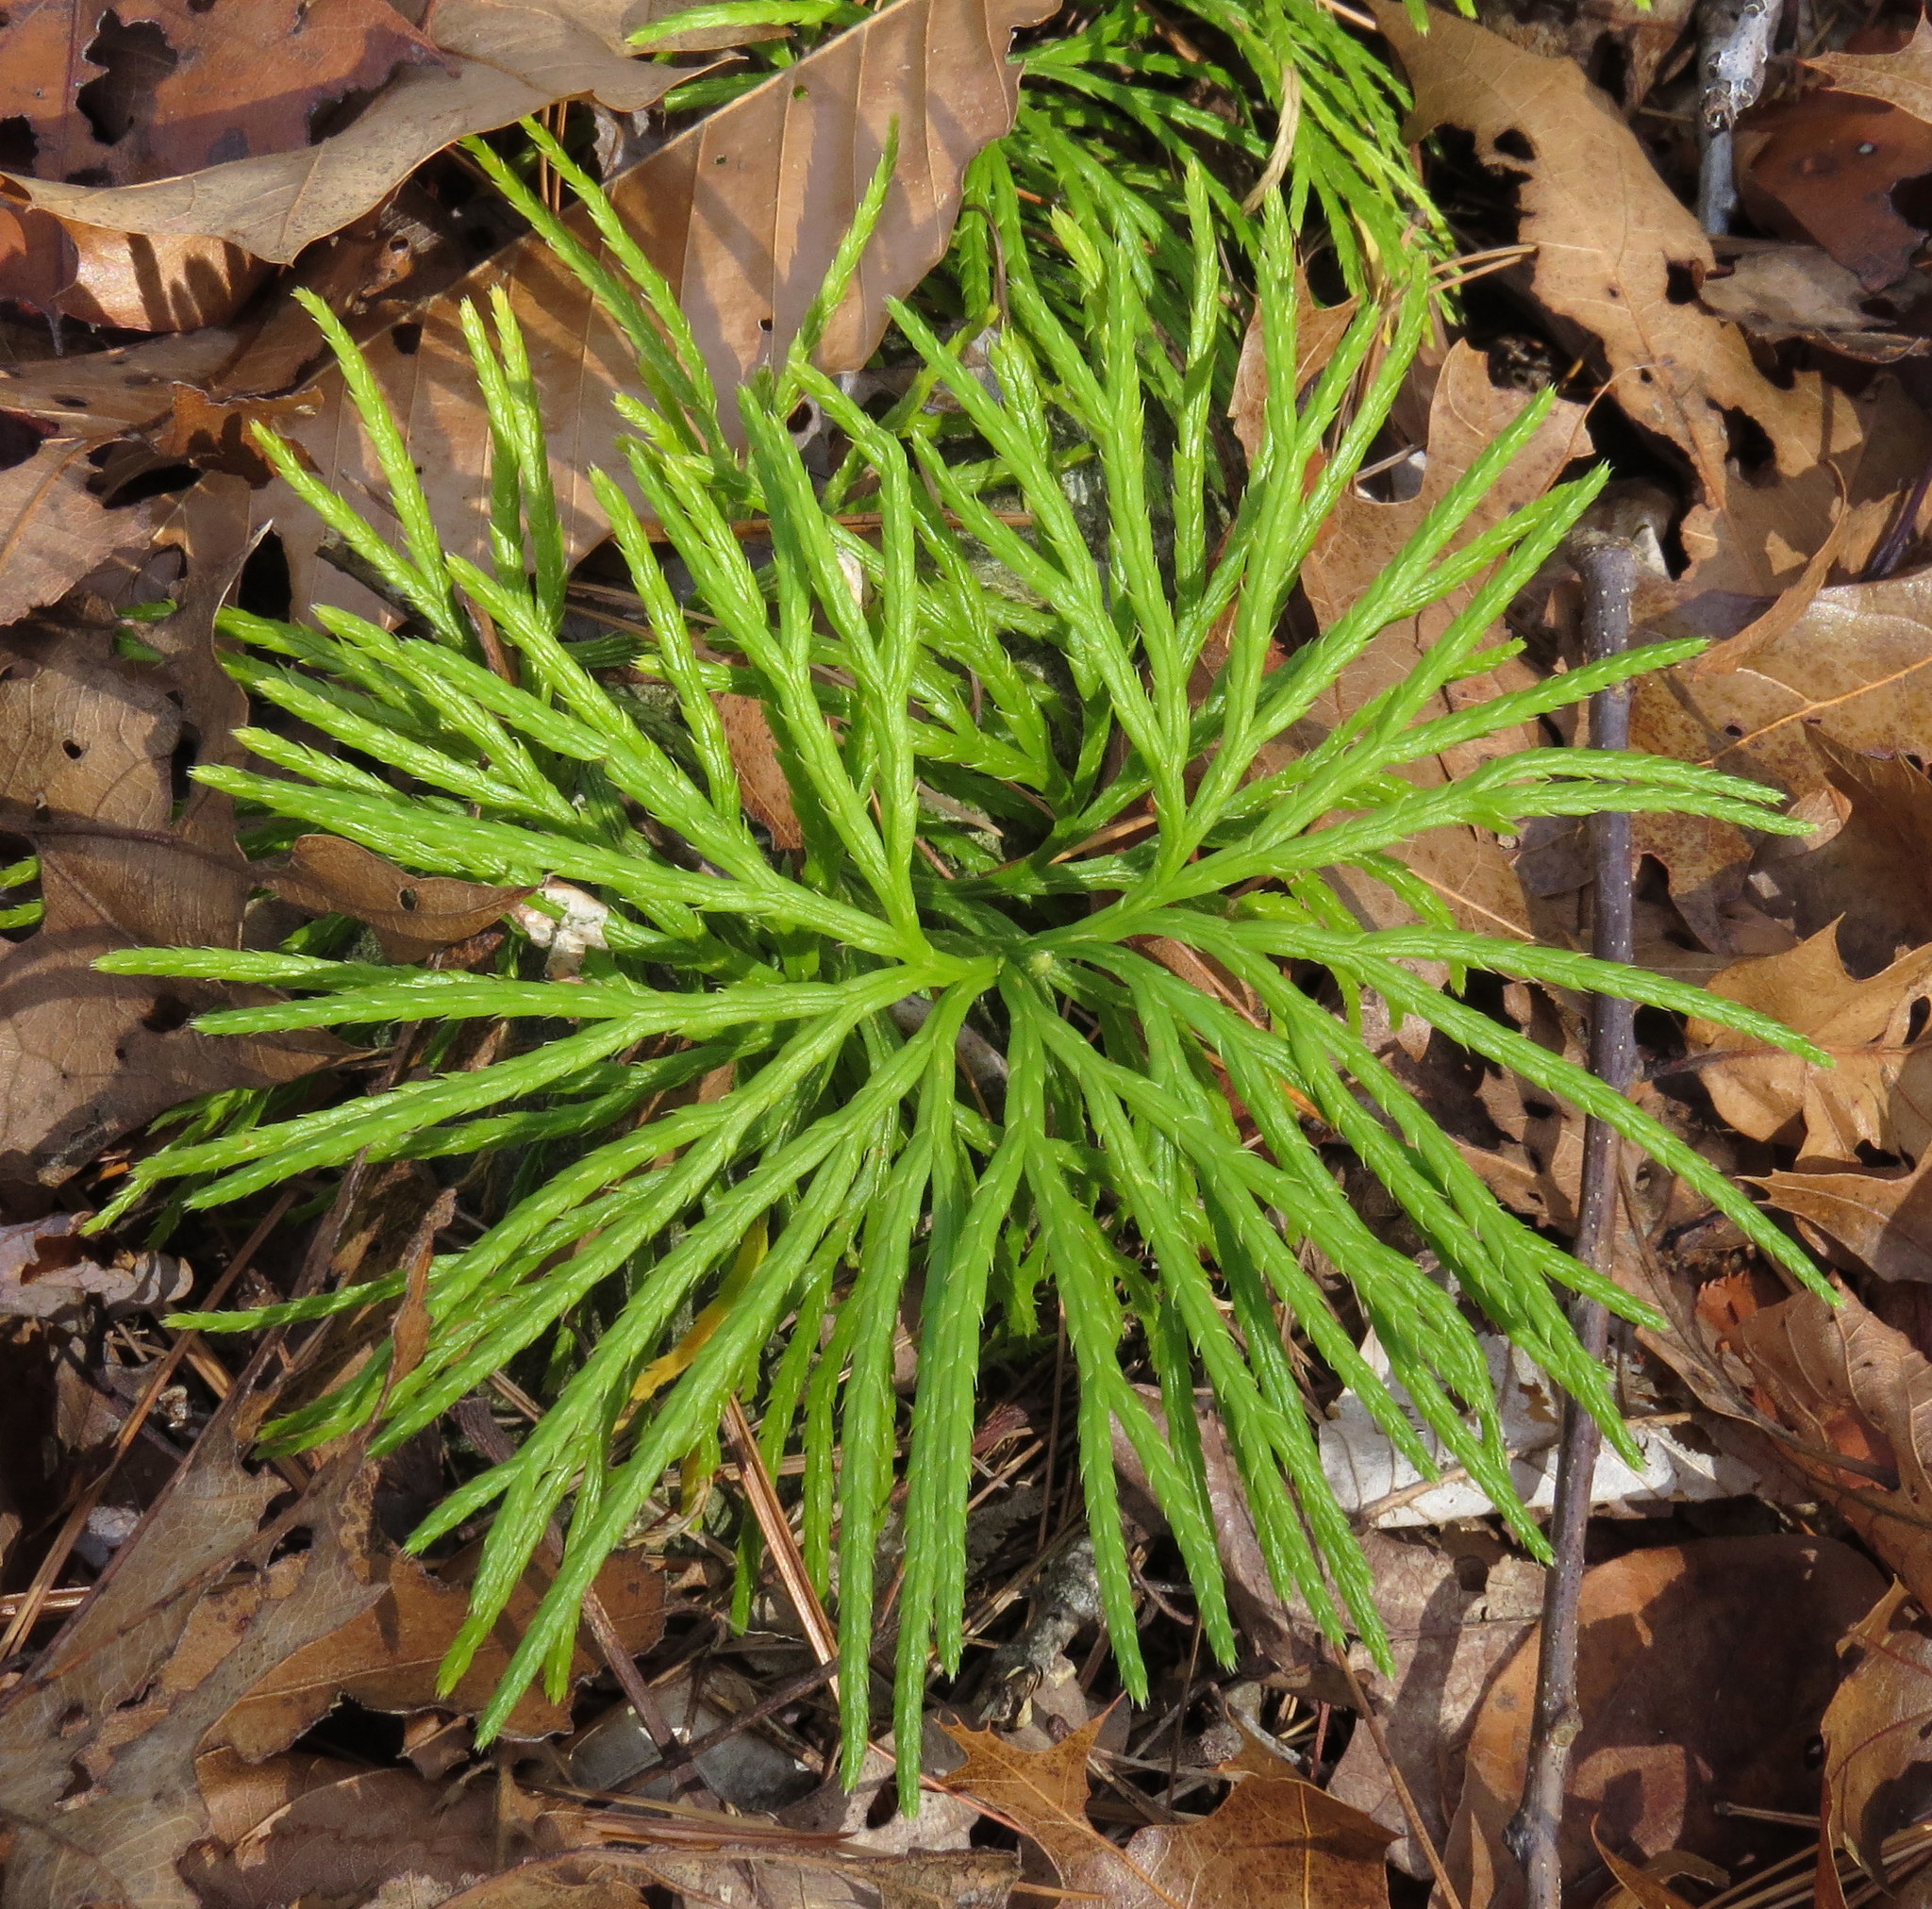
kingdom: Plantae
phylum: Tracheophyta
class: Lycopodiopsida
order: Lycopodiales
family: Lycopodiaceae
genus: Diphasiastrum
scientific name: Diphasiastrum digitatum
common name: Southern running-pine
